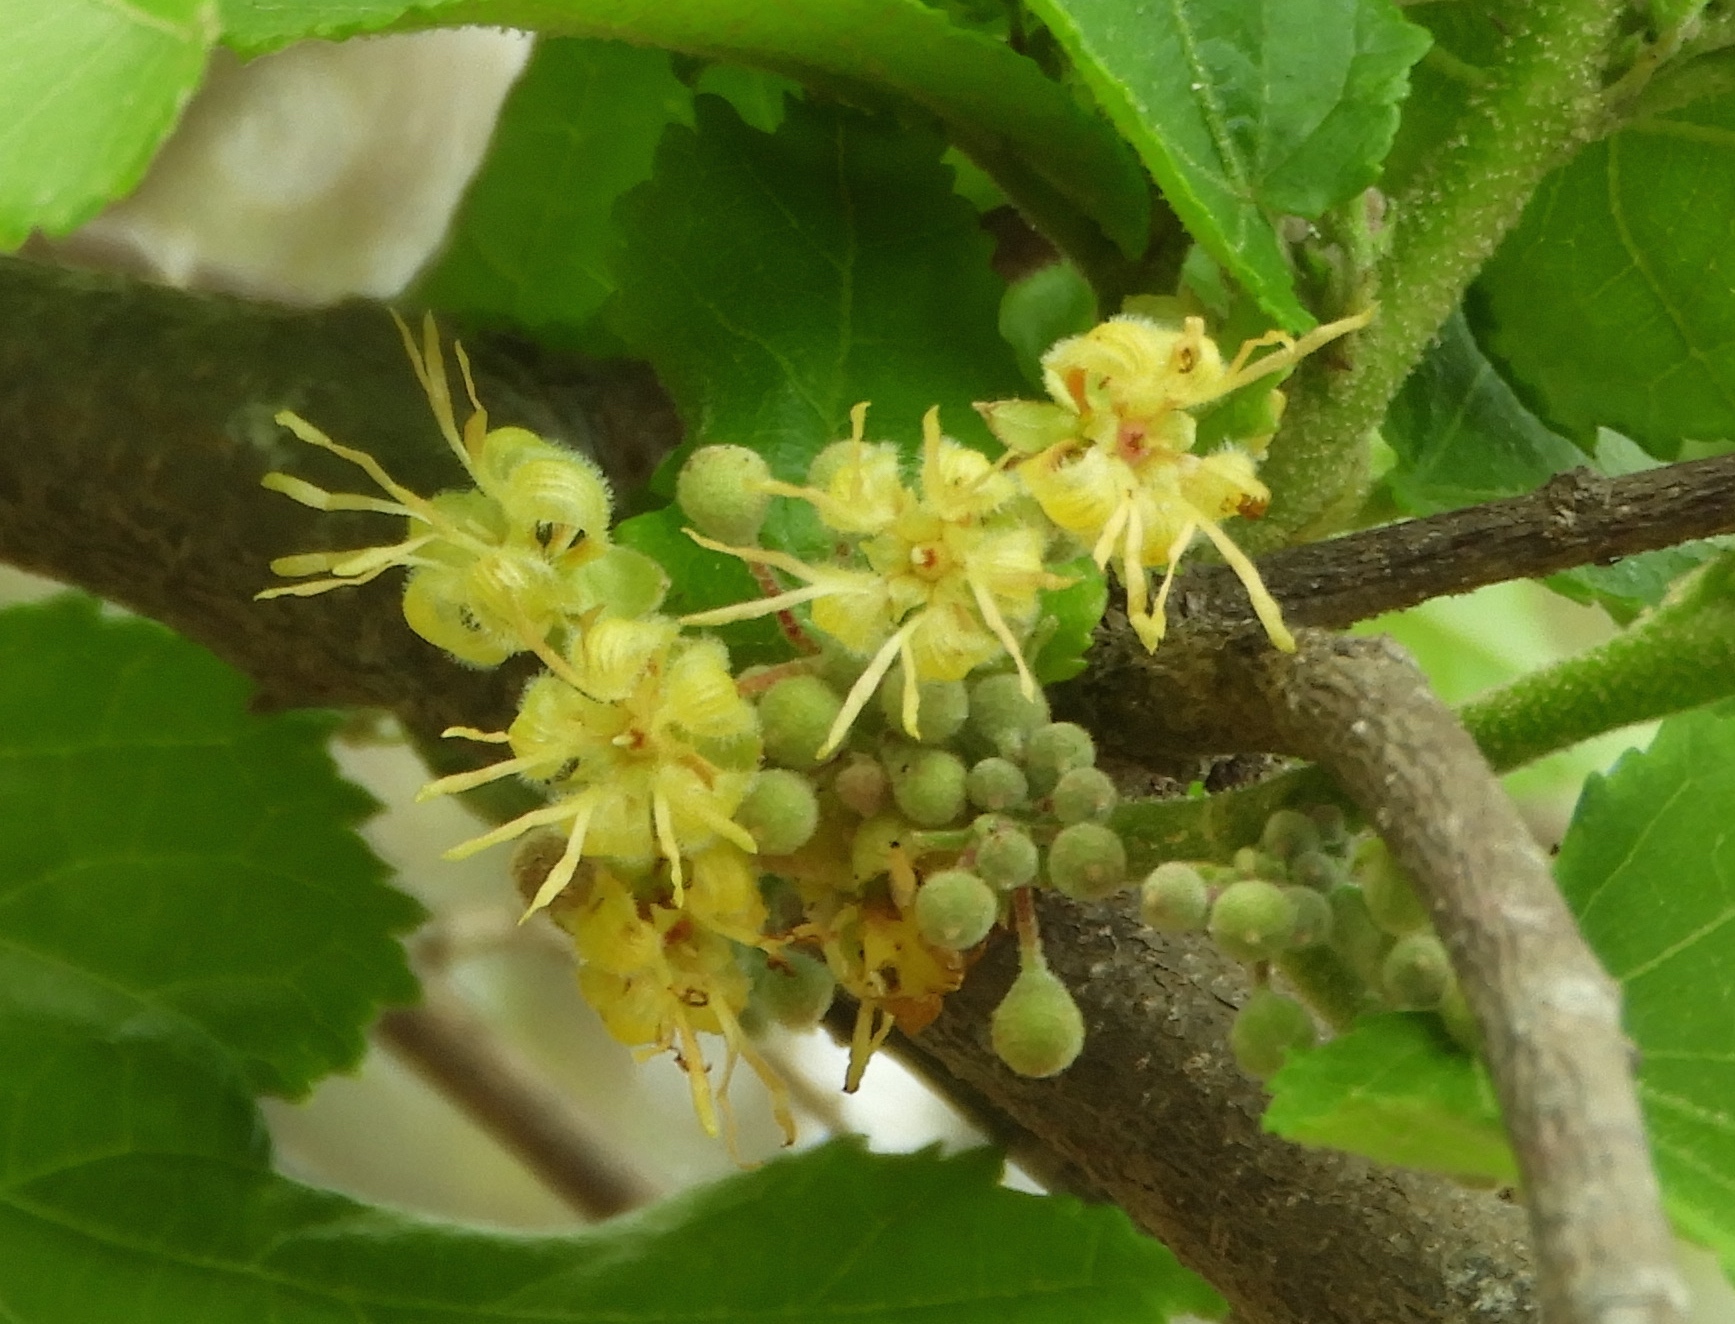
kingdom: Plantae
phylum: Tracheophyta
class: Magnoliopsida
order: Malvales
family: Malvaceae
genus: Guazuma
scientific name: Guazuma ulmifolia
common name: Bastard-cedar
